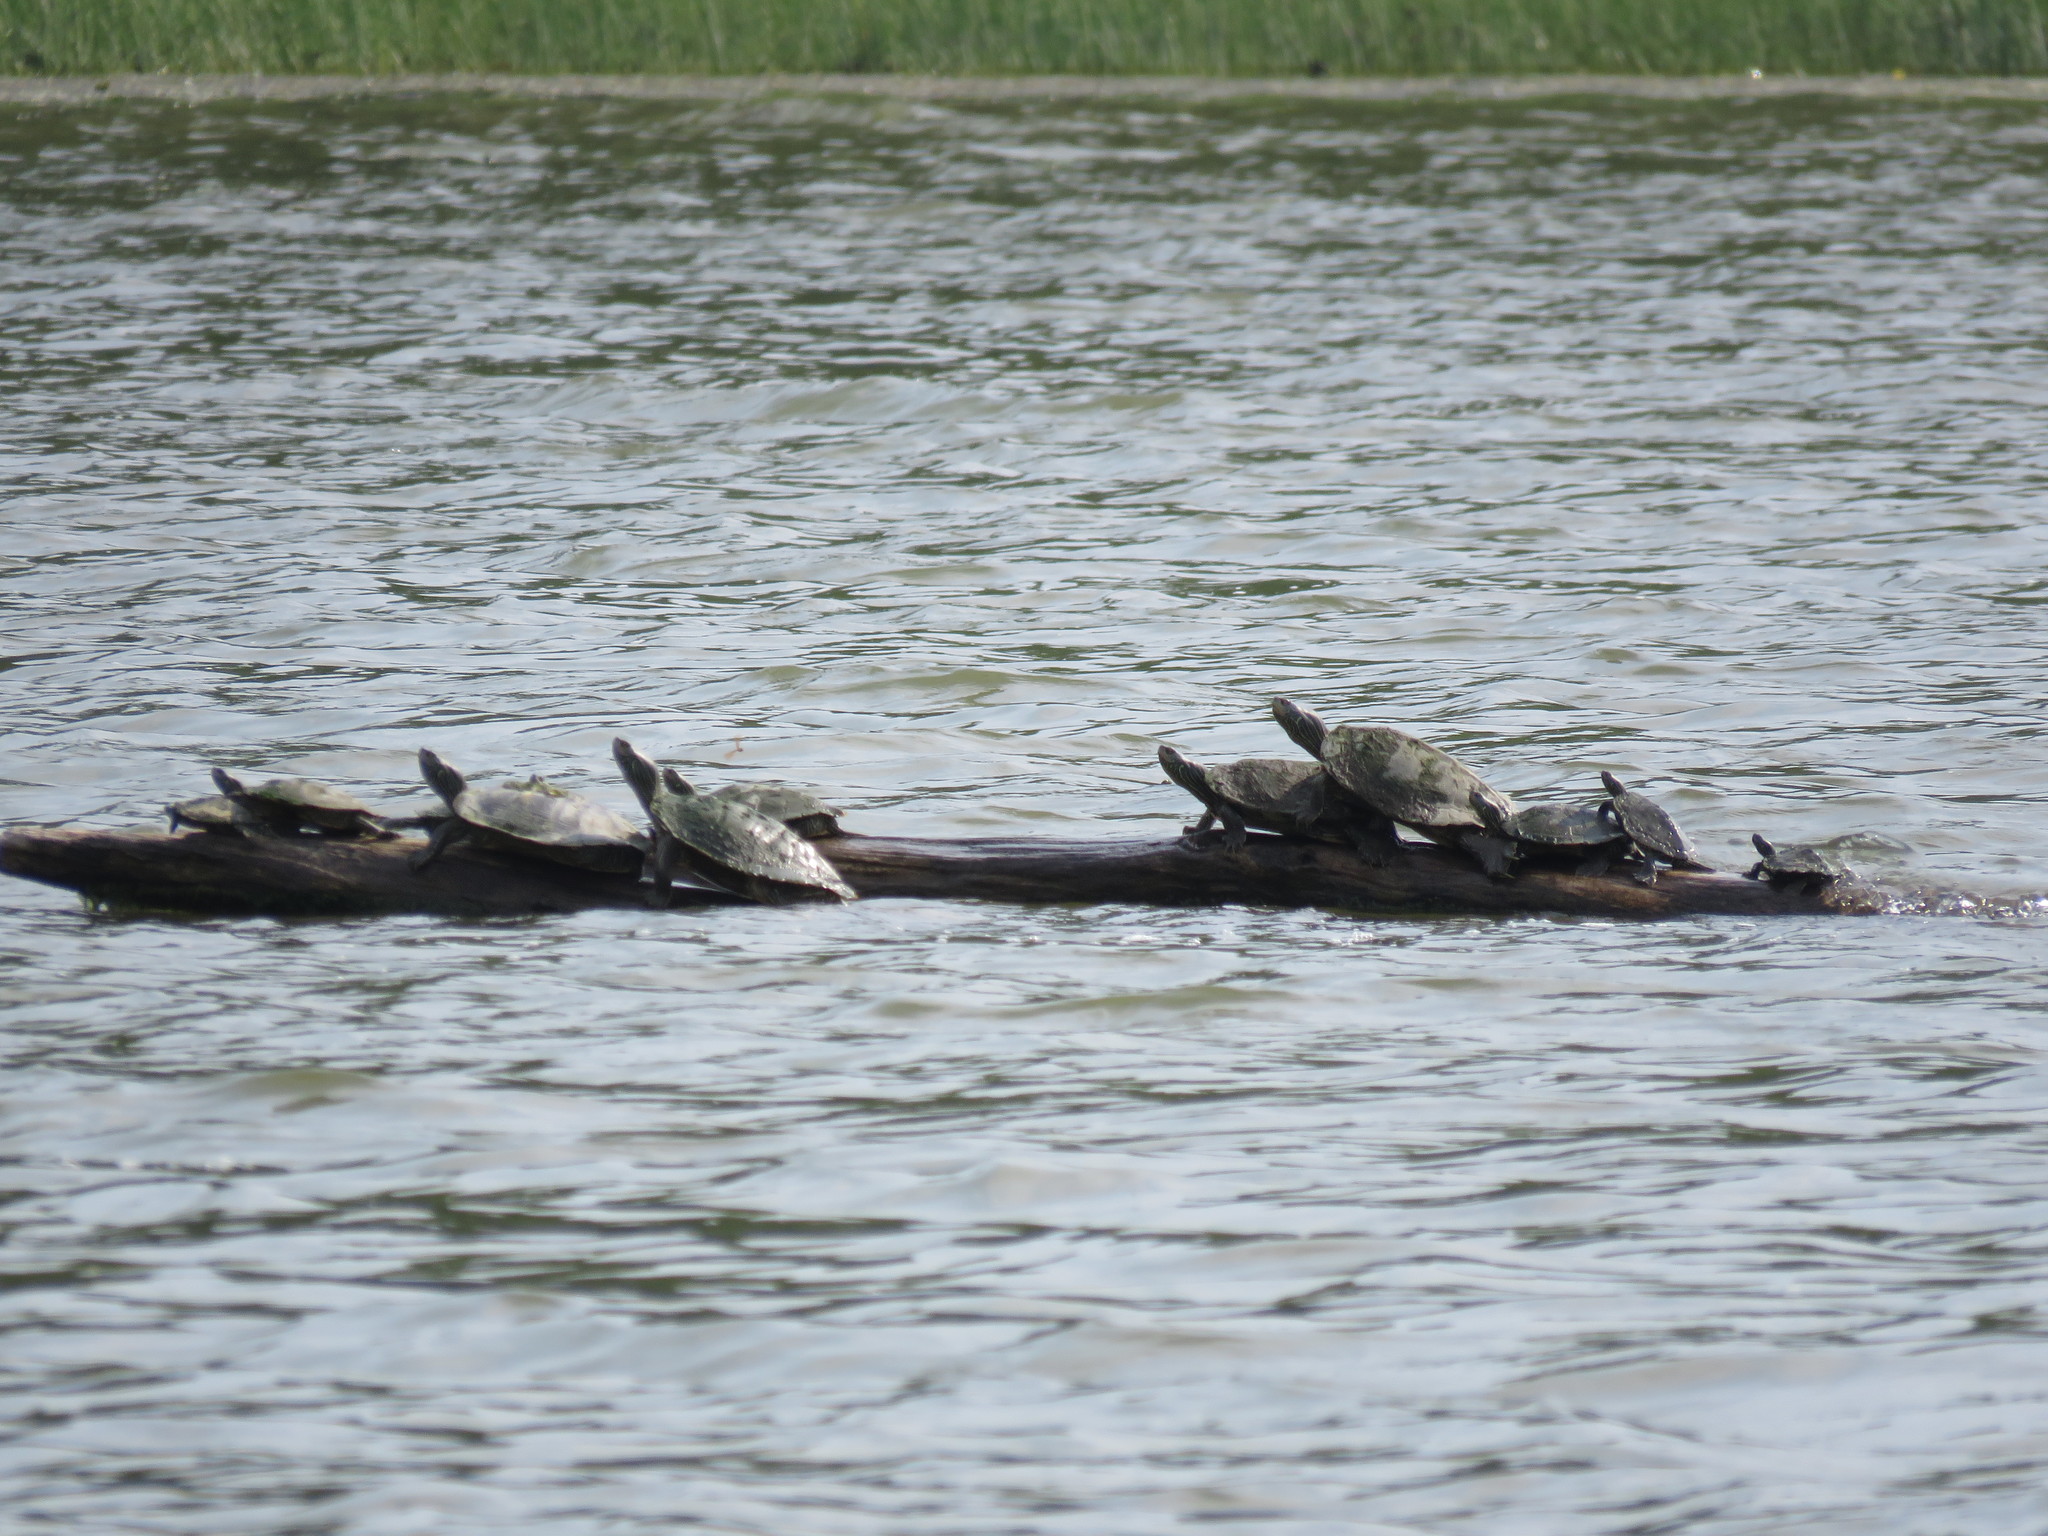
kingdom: Animalia
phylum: Chordata
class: Testudines
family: Emydidae
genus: Graptemys
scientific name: Graptemys geographica
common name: Common map turtle
